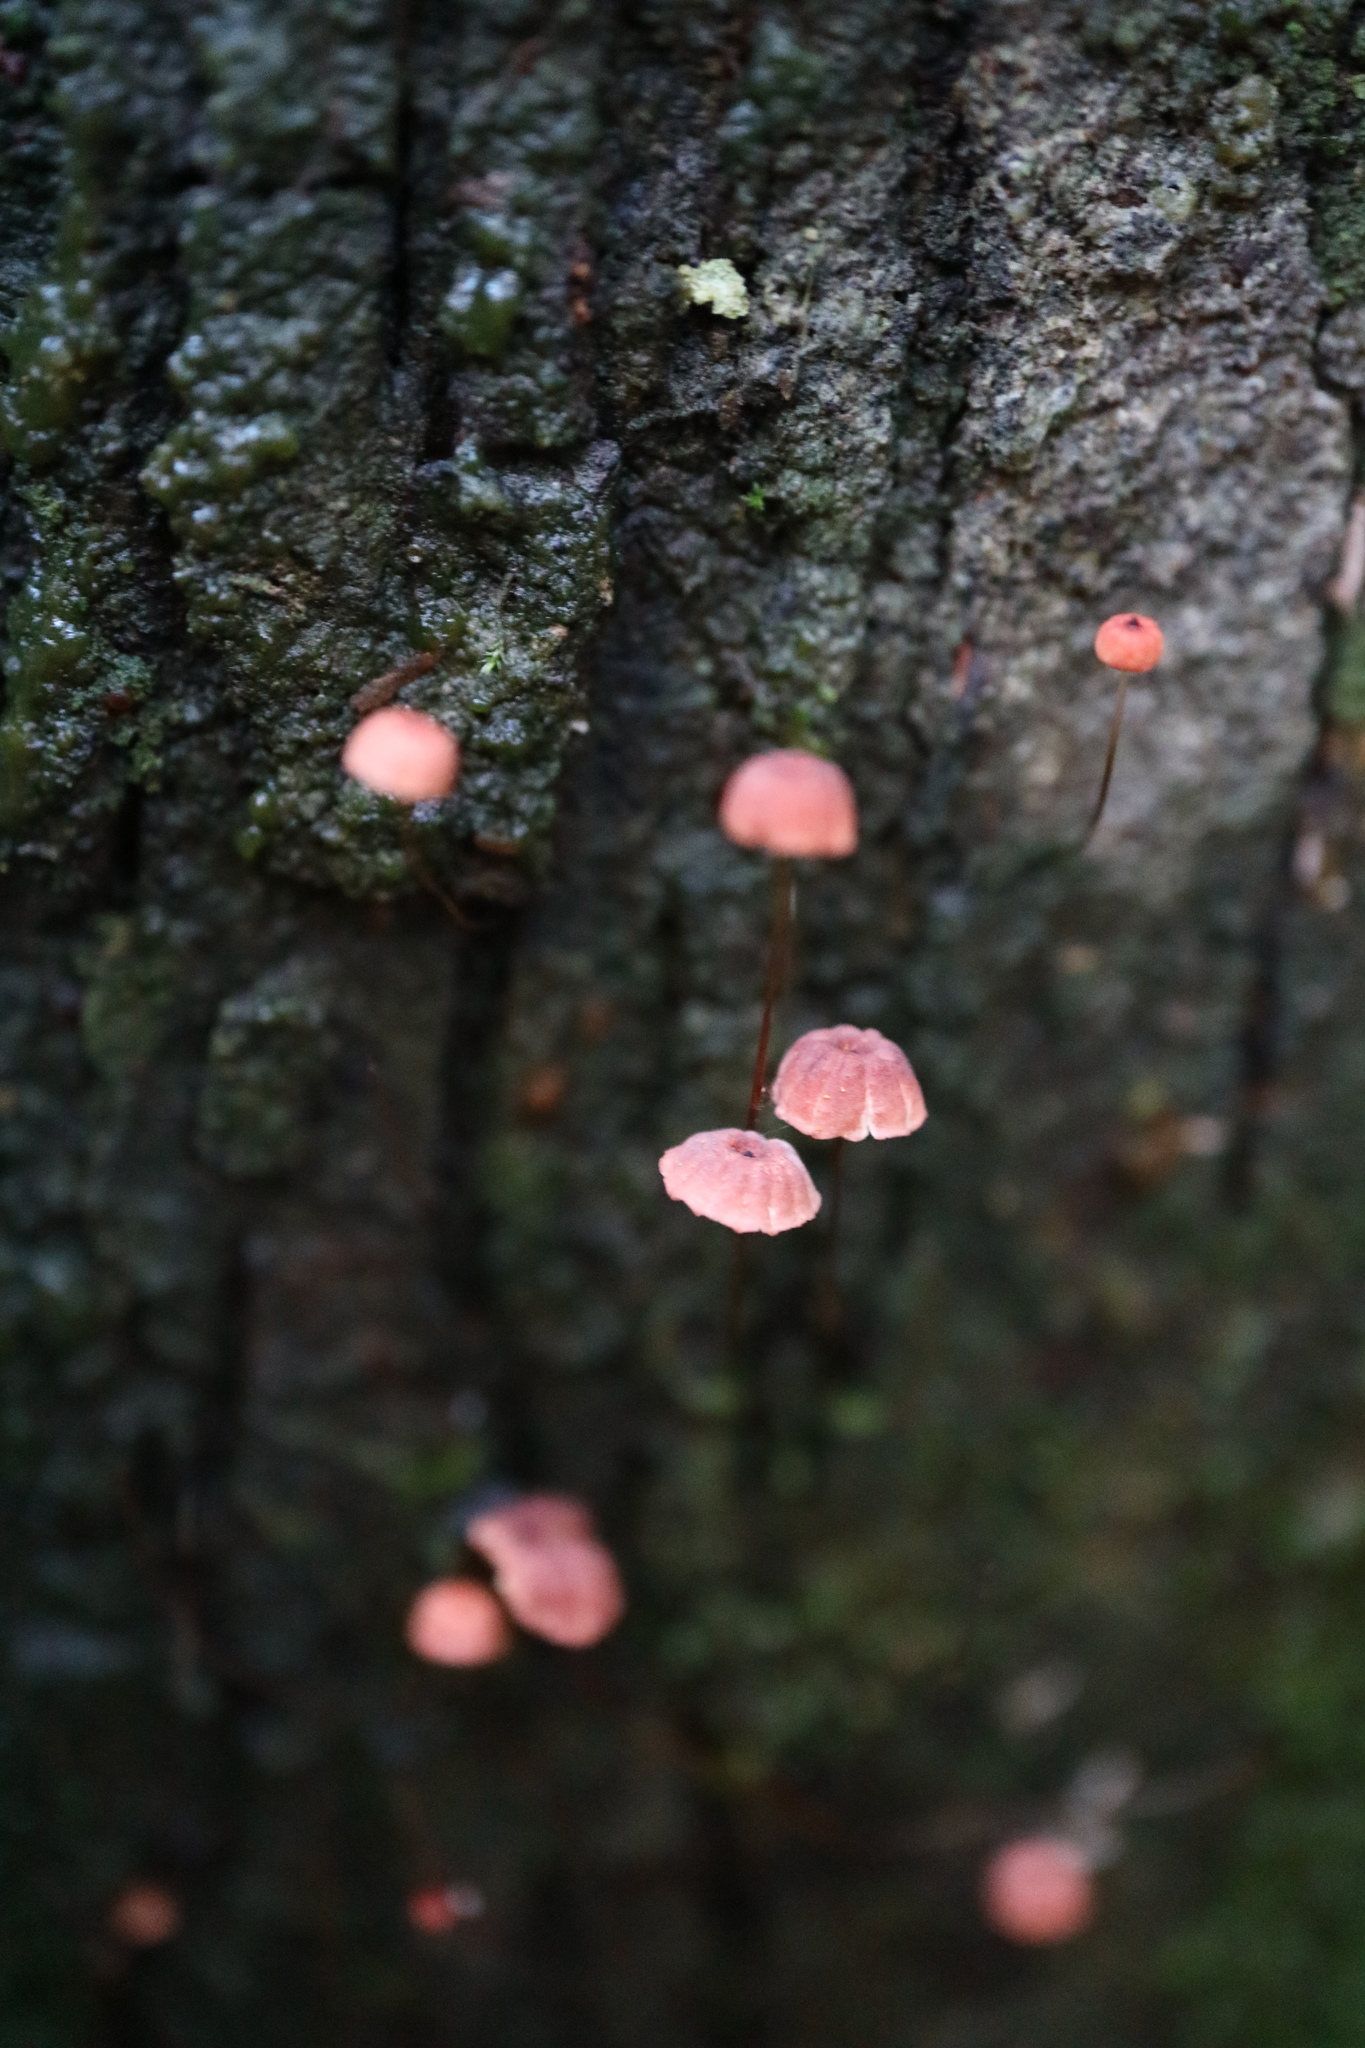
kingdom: Fungi
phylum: Basidiomycota
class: Agaricomycetes
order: Agaricales
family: Marasmiaceae
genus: Marasmius
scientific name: Marasmius crinis-equi
